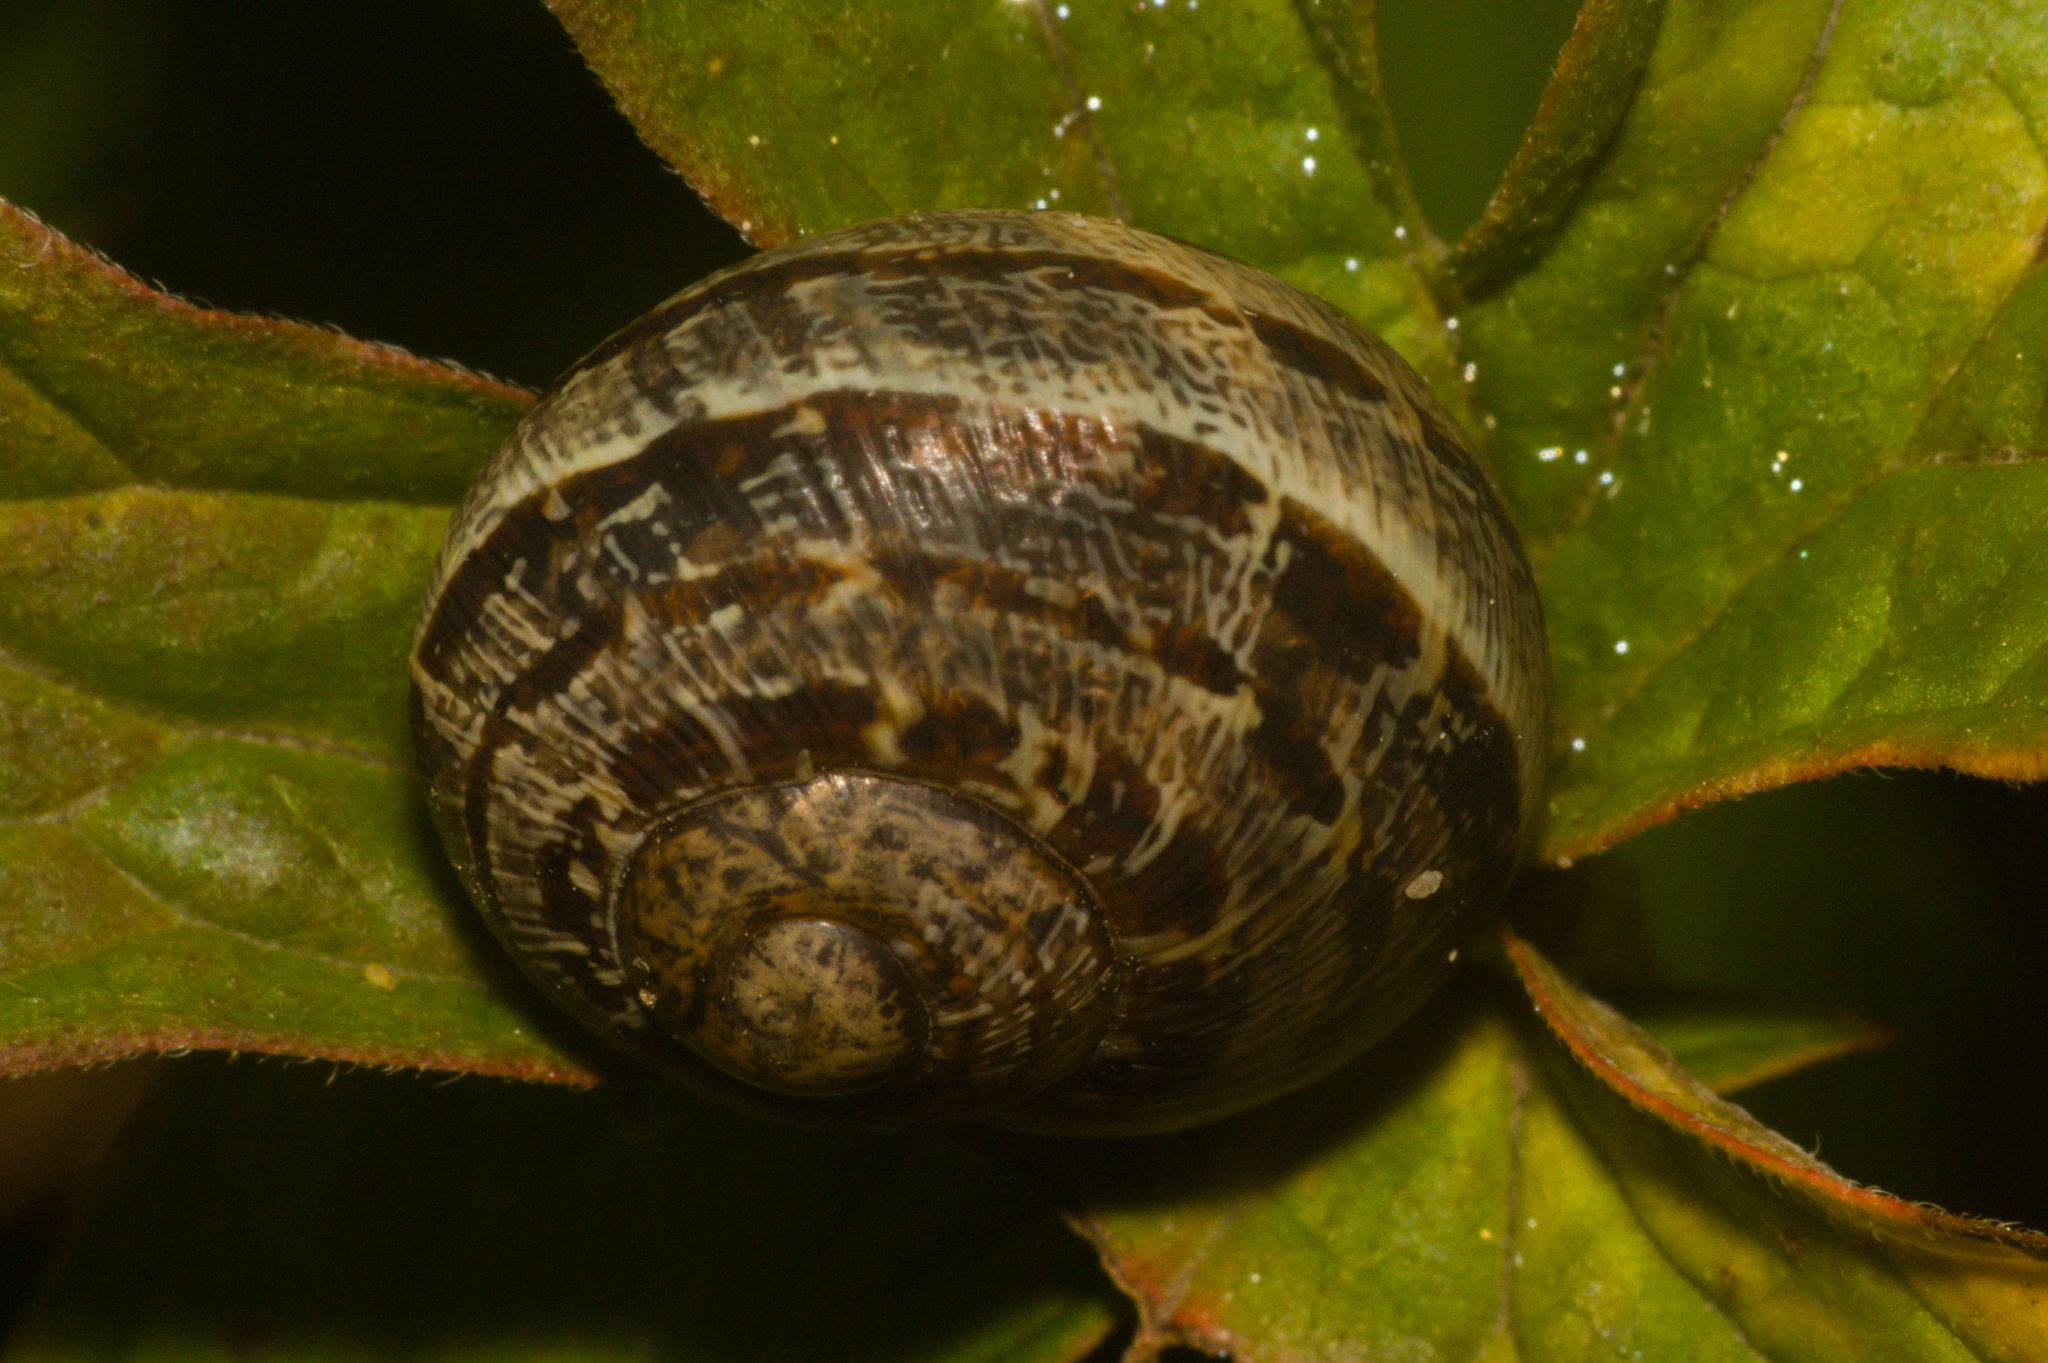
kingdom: Animalia
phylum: Mollusca
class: Gastropoda
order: Stylommatophora
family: Helicidae
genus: Cornu
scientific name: Cornu aspersum
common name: Brown garden snail
